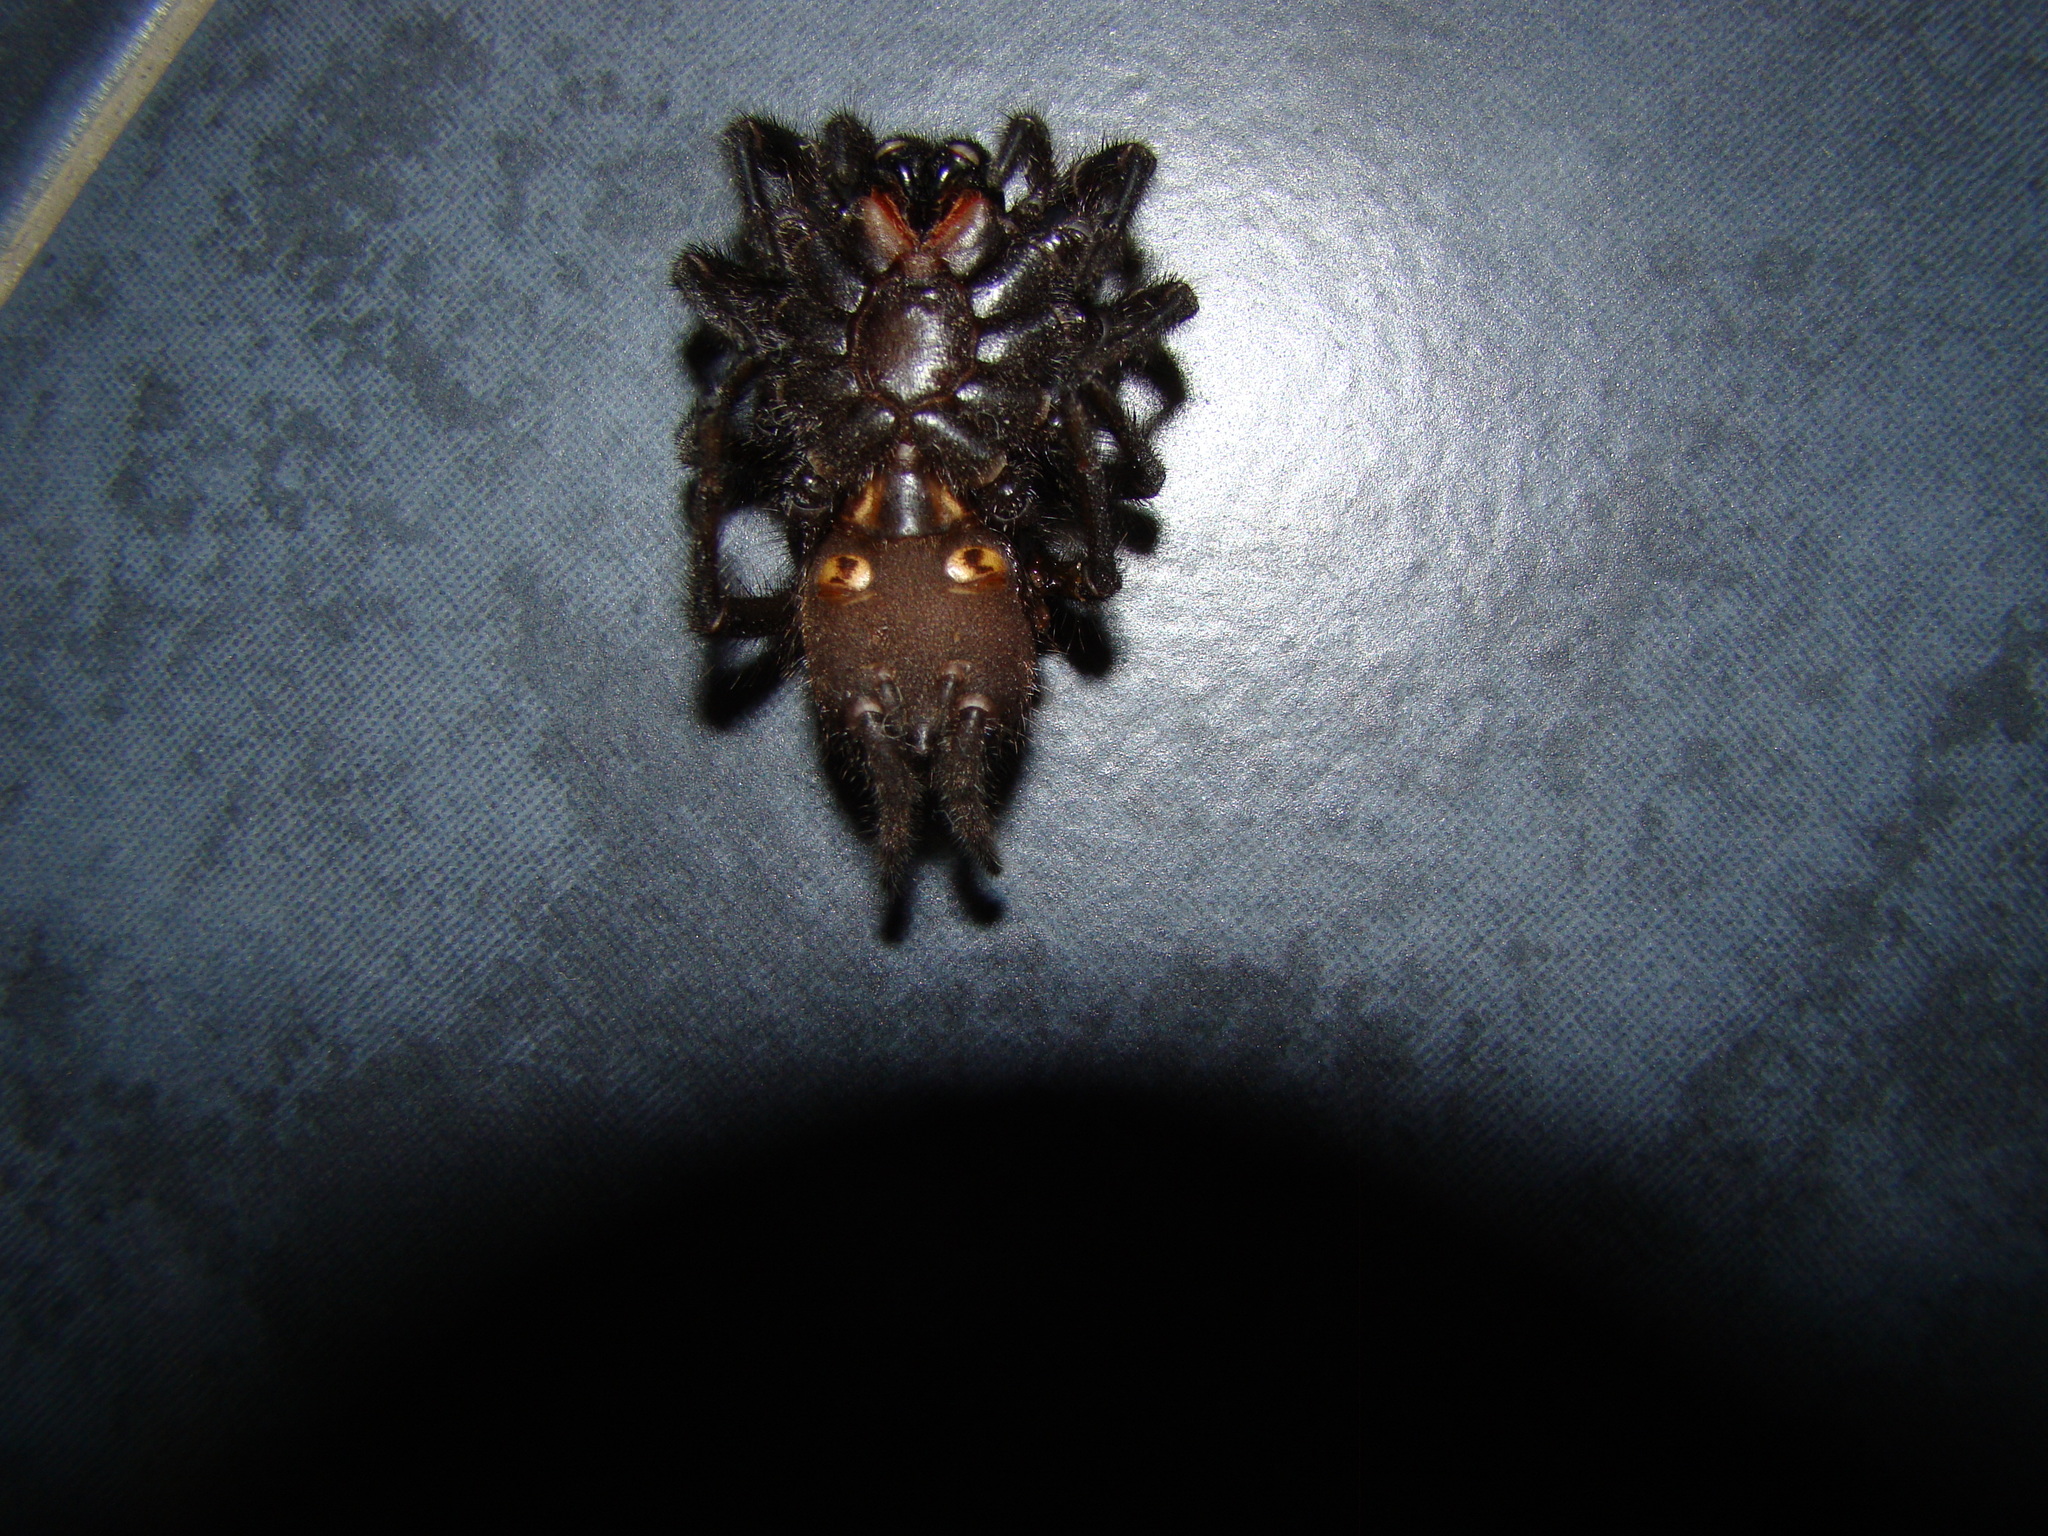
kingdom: Animalia
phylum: Arthropoda
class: Arachnida
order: Araneae
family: Porrhothelidae
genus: Porrhothele
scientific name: Porrhothele antipodiana
